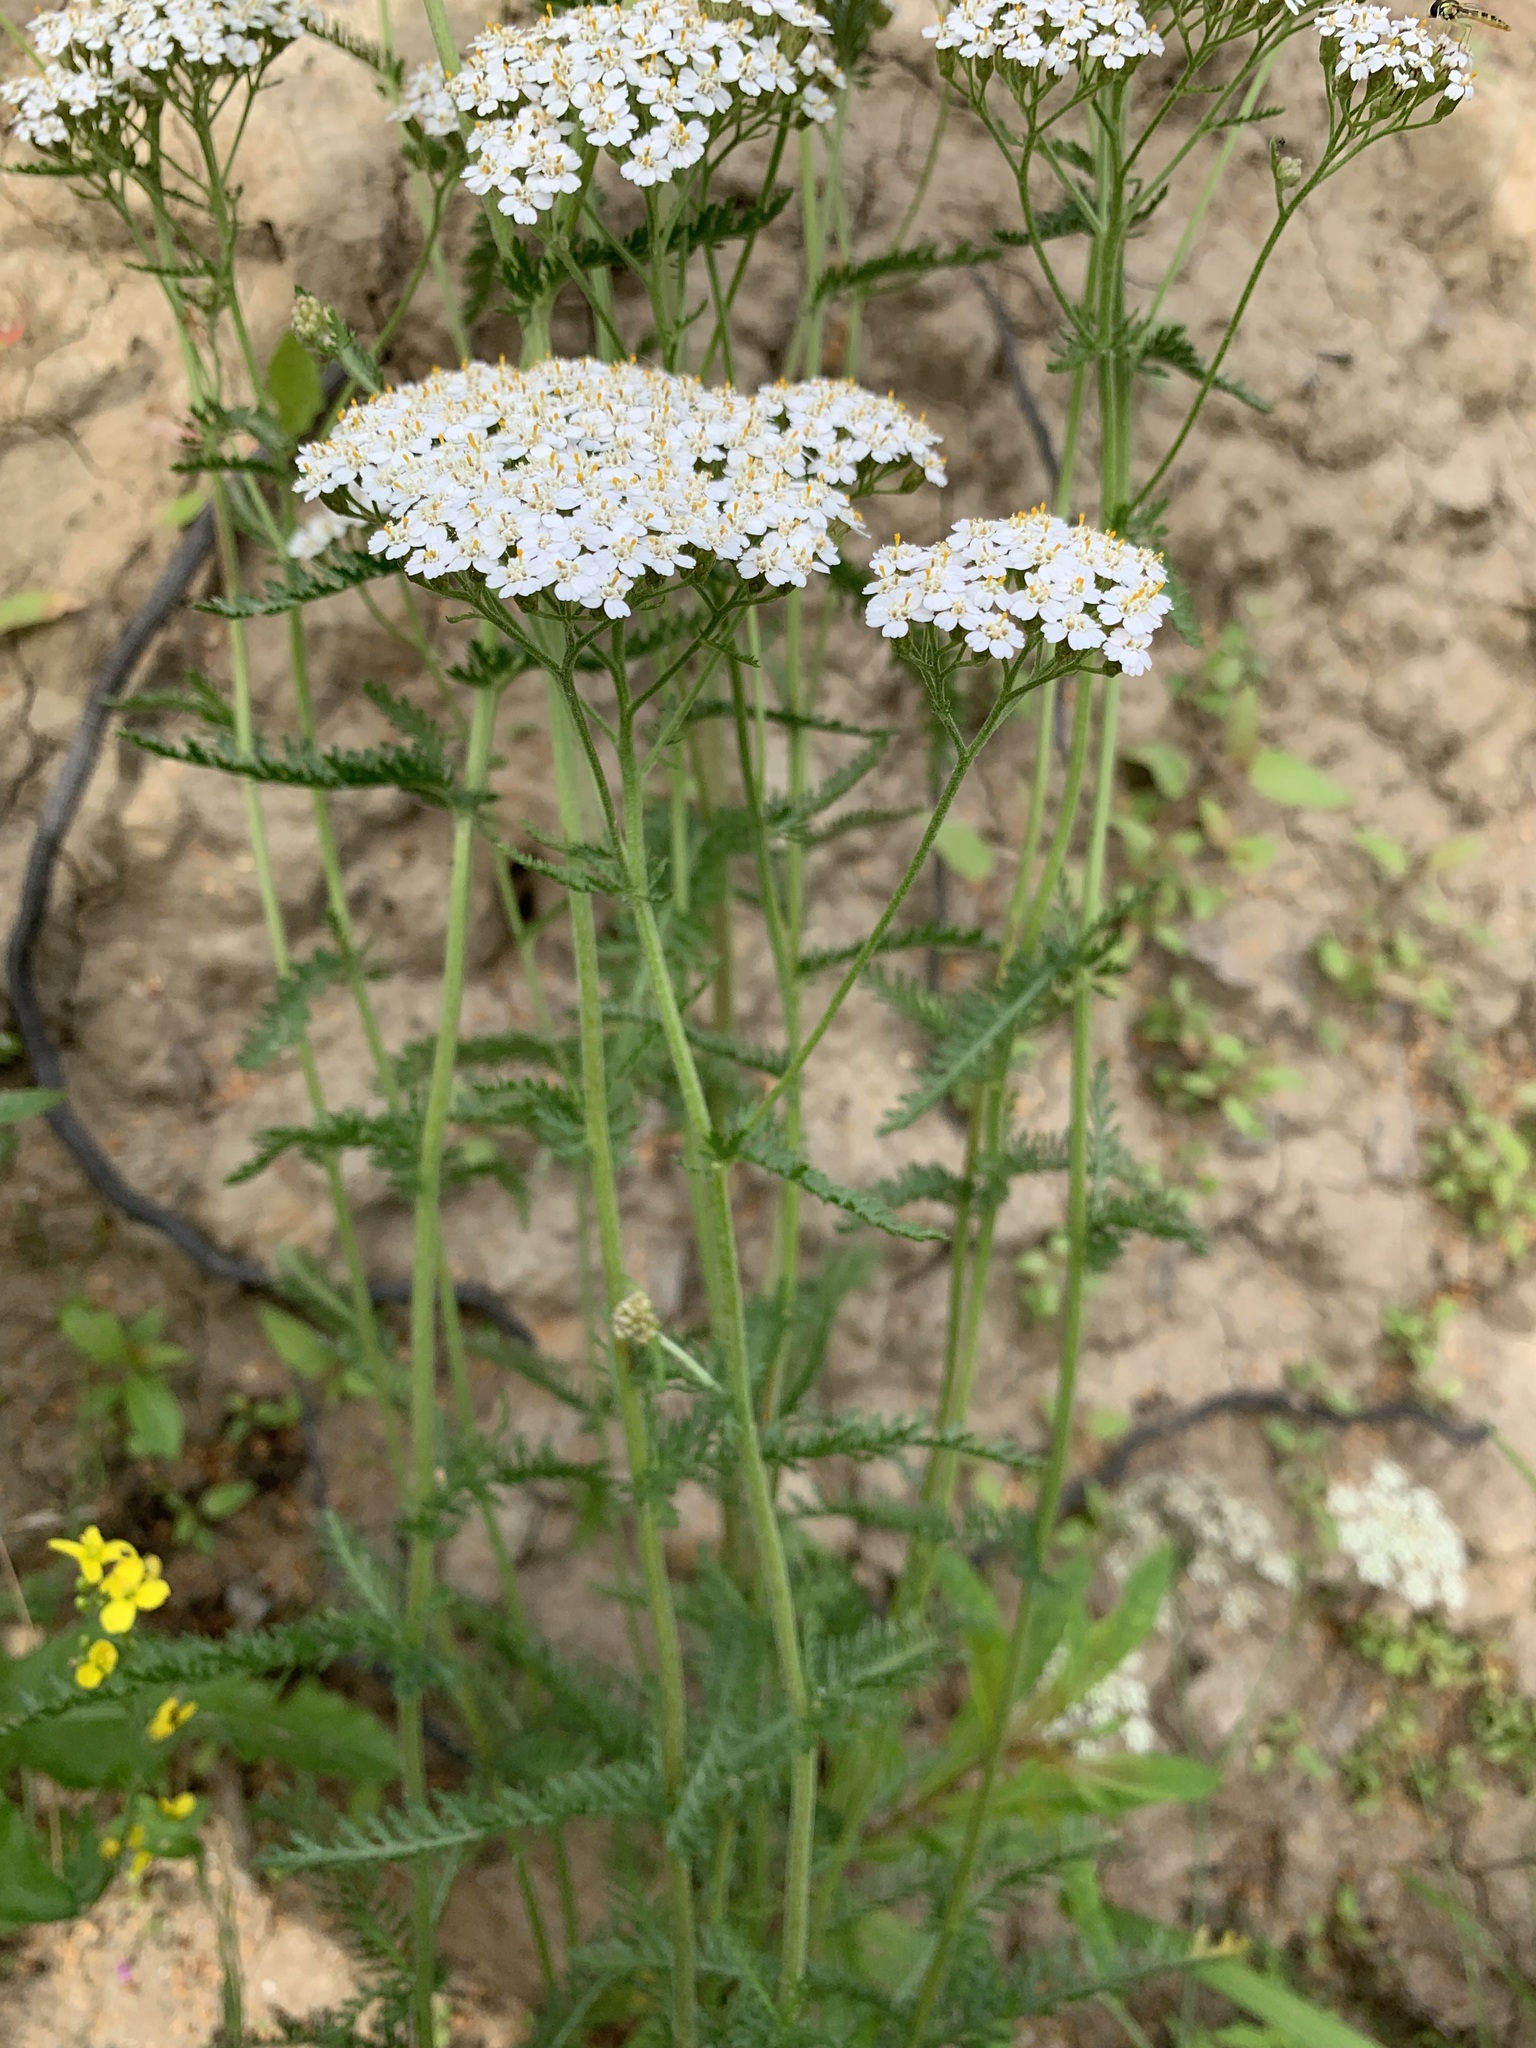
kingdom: Plantae
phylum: Tracheophyta
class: Magnoliopsida
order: Asterales
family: Asteraceae
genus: Achillea
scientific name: Achillea millefolium
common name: Yarrow
